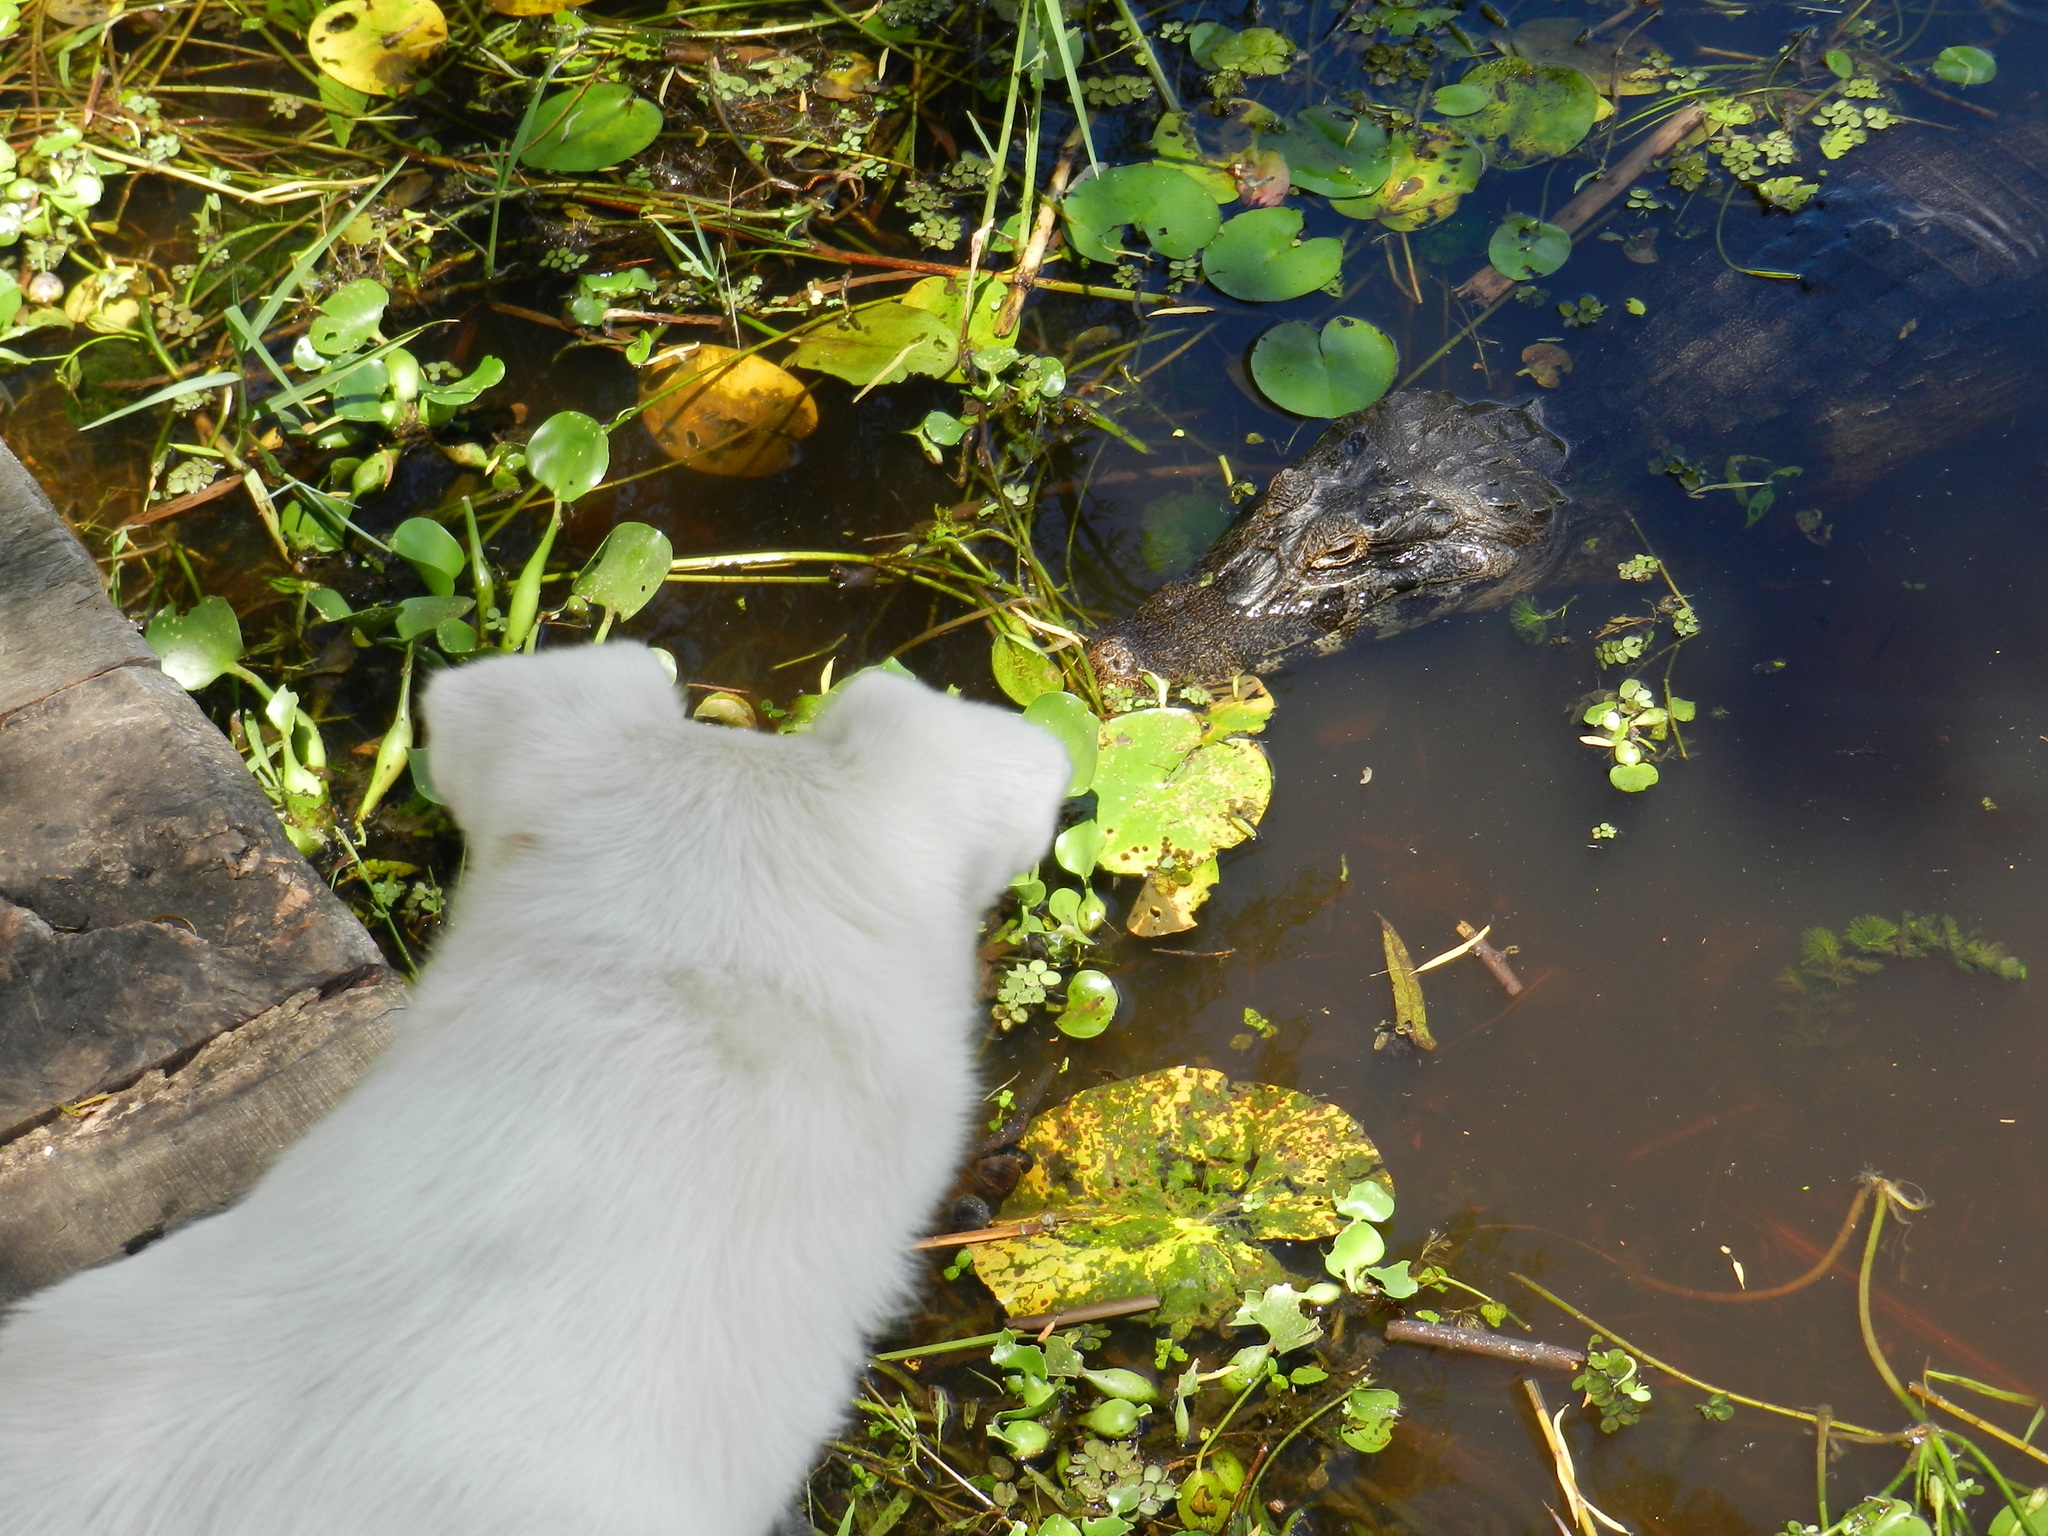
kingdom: Animalia
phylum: Chordata
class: Crocodylia
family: Alligatoridae
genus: Caiman
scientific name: Caiman yacare
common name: Yacare caiman
